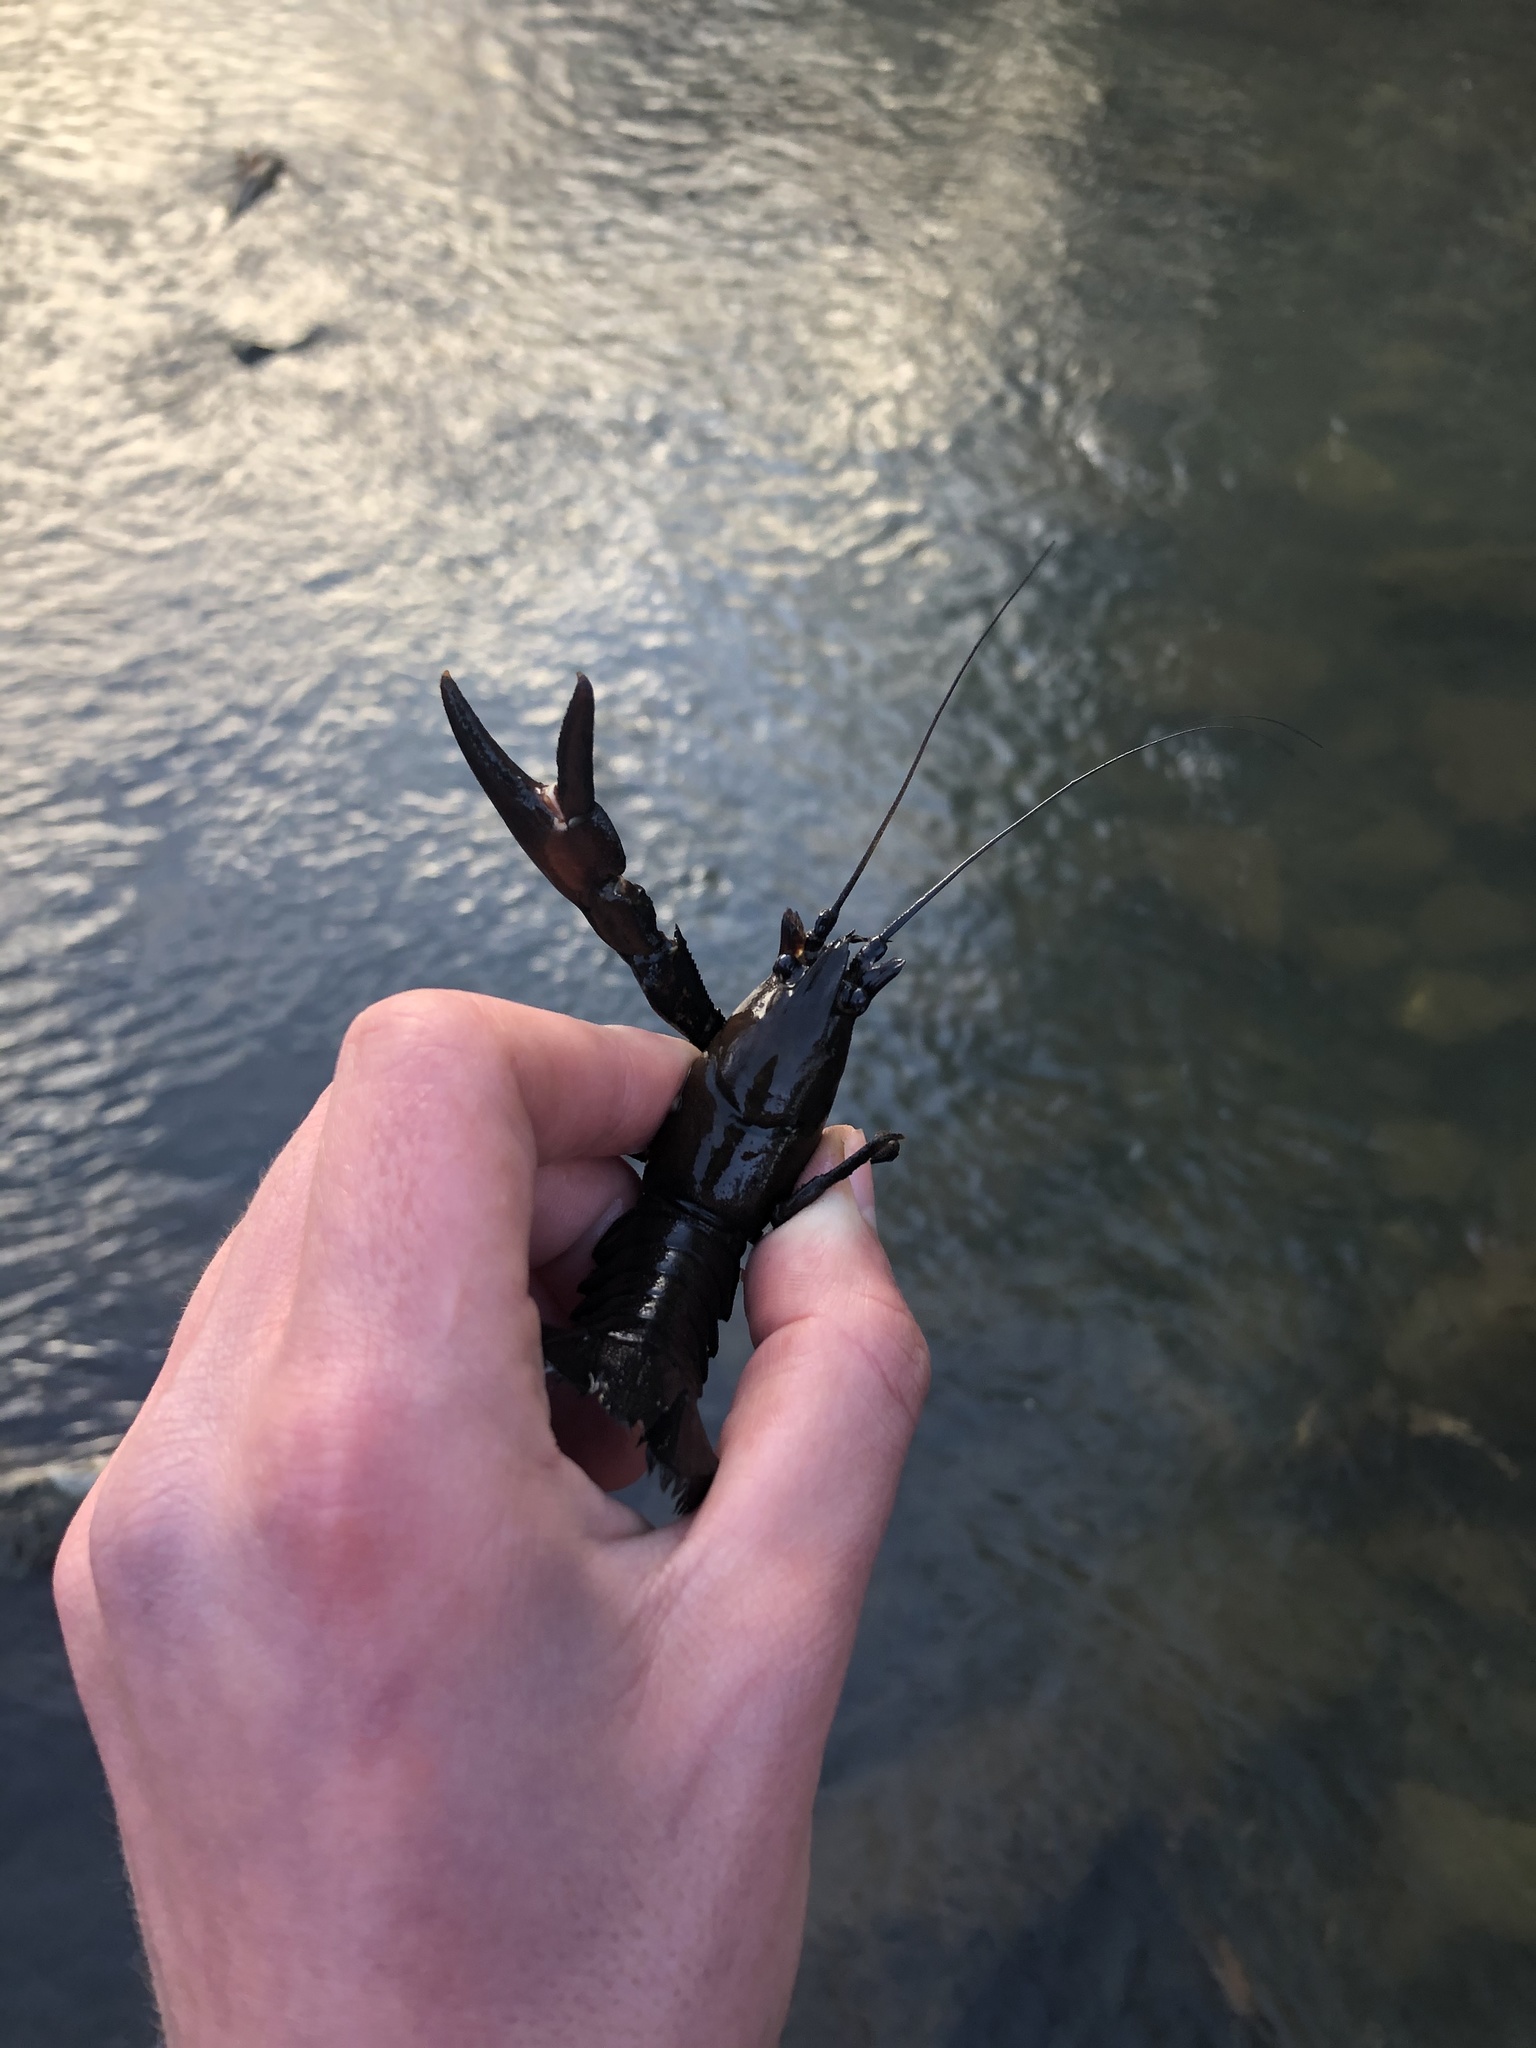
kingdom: Animalia
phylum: Arthropoda
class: Malacostraca
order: Decapoda
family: Astacidae
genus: Pacifastacus
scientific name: Pacifastacus leniusculus
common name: Signal crayfish
